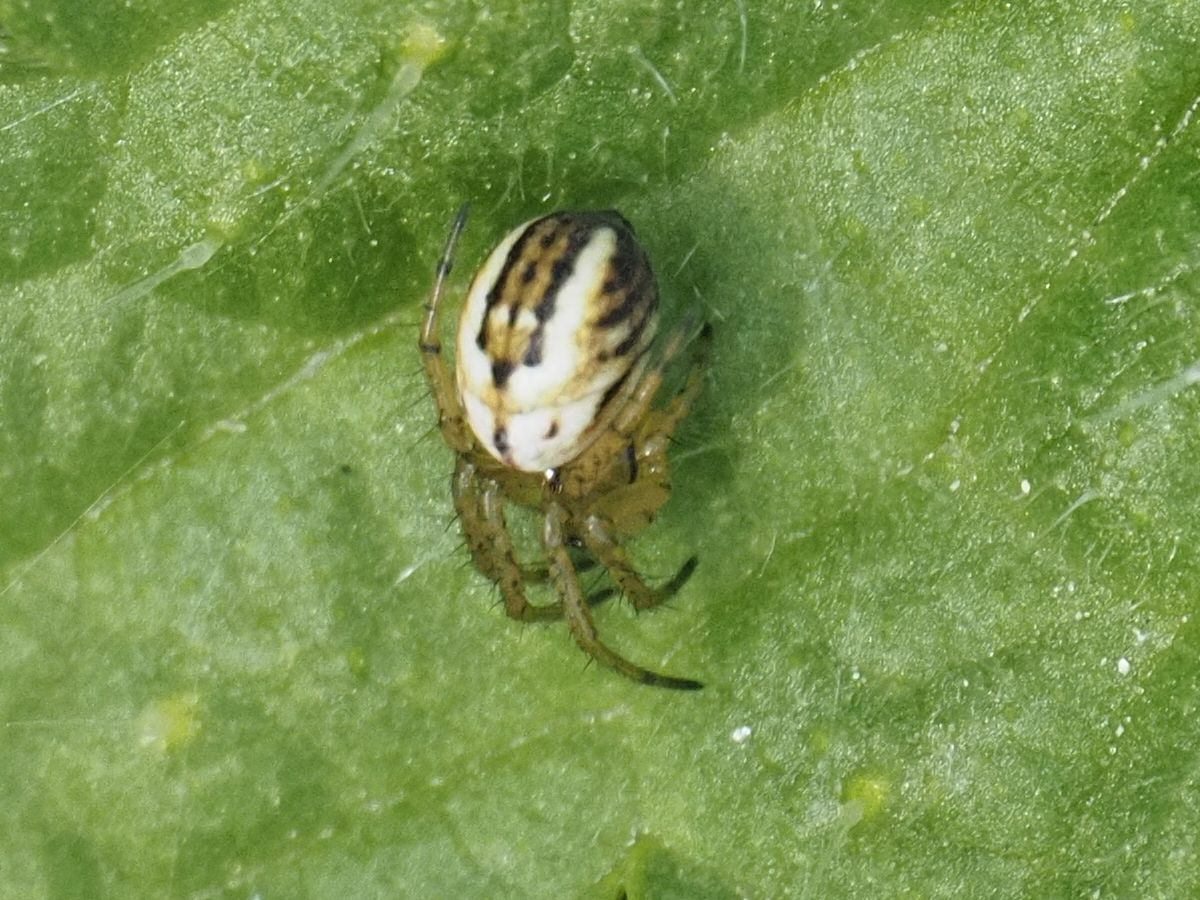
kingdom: Animalia
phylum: Arthropoda
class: Arachnida
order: Araneae
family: Araneidae
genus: Mangora
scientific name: Mangora acalypha
